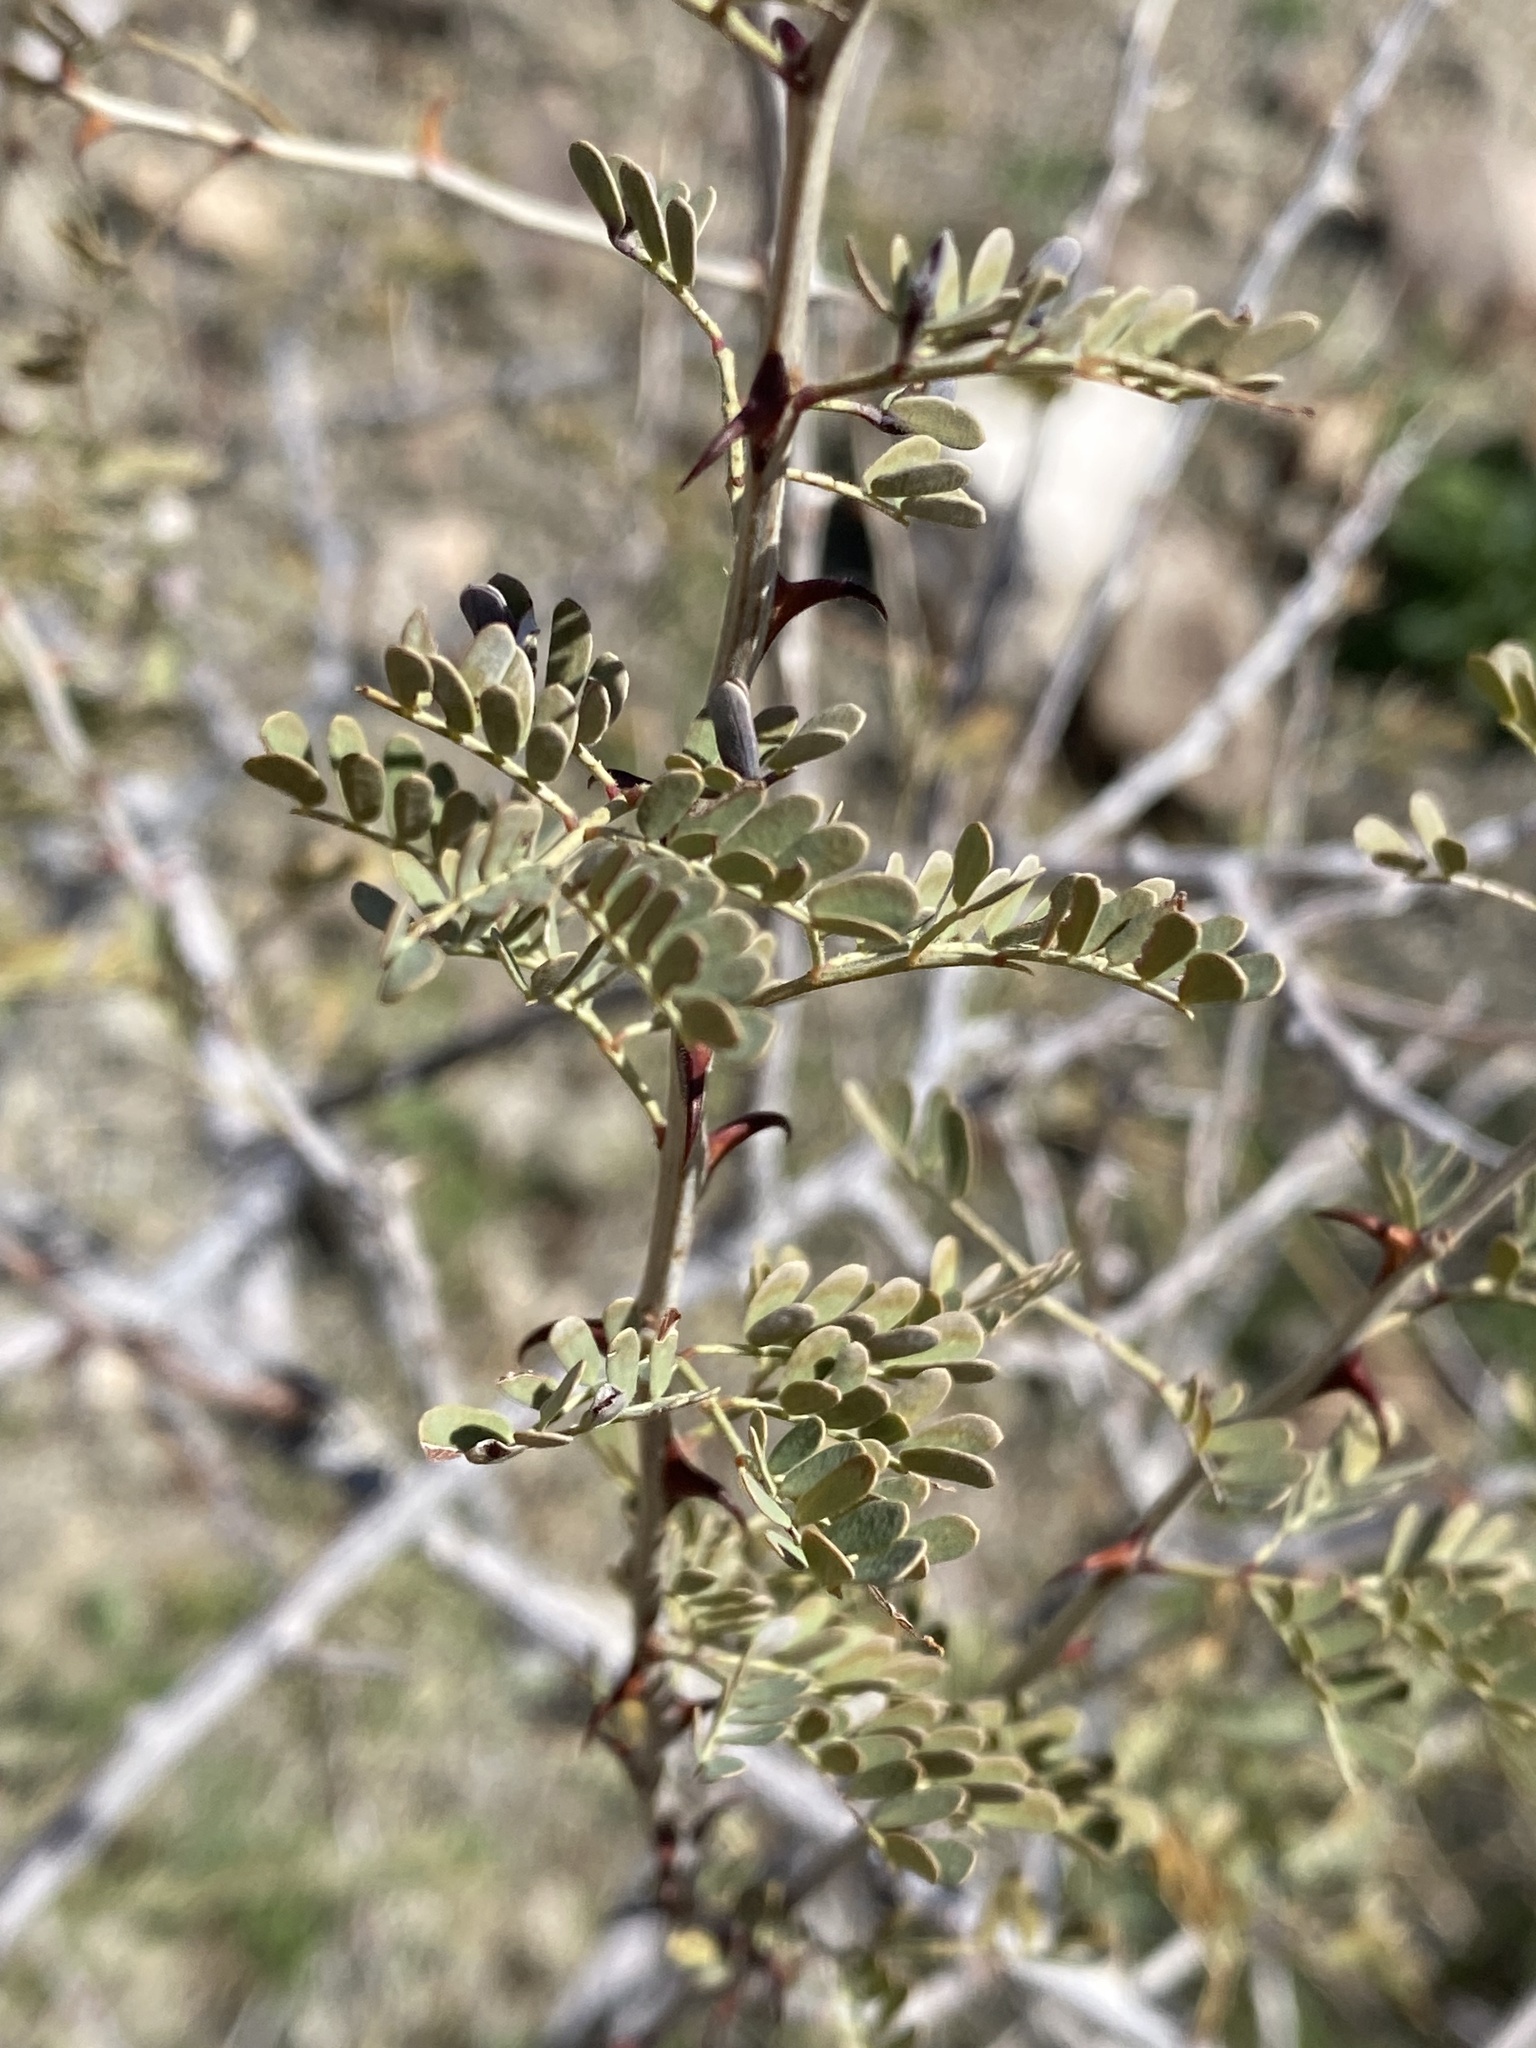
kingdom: Plantae
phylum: Tracheophyta
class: Magnoliopsida
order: Fabales
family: Fabaceae
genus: Senegalia
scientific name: Senegalia greggii
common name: Texas-mimosa
